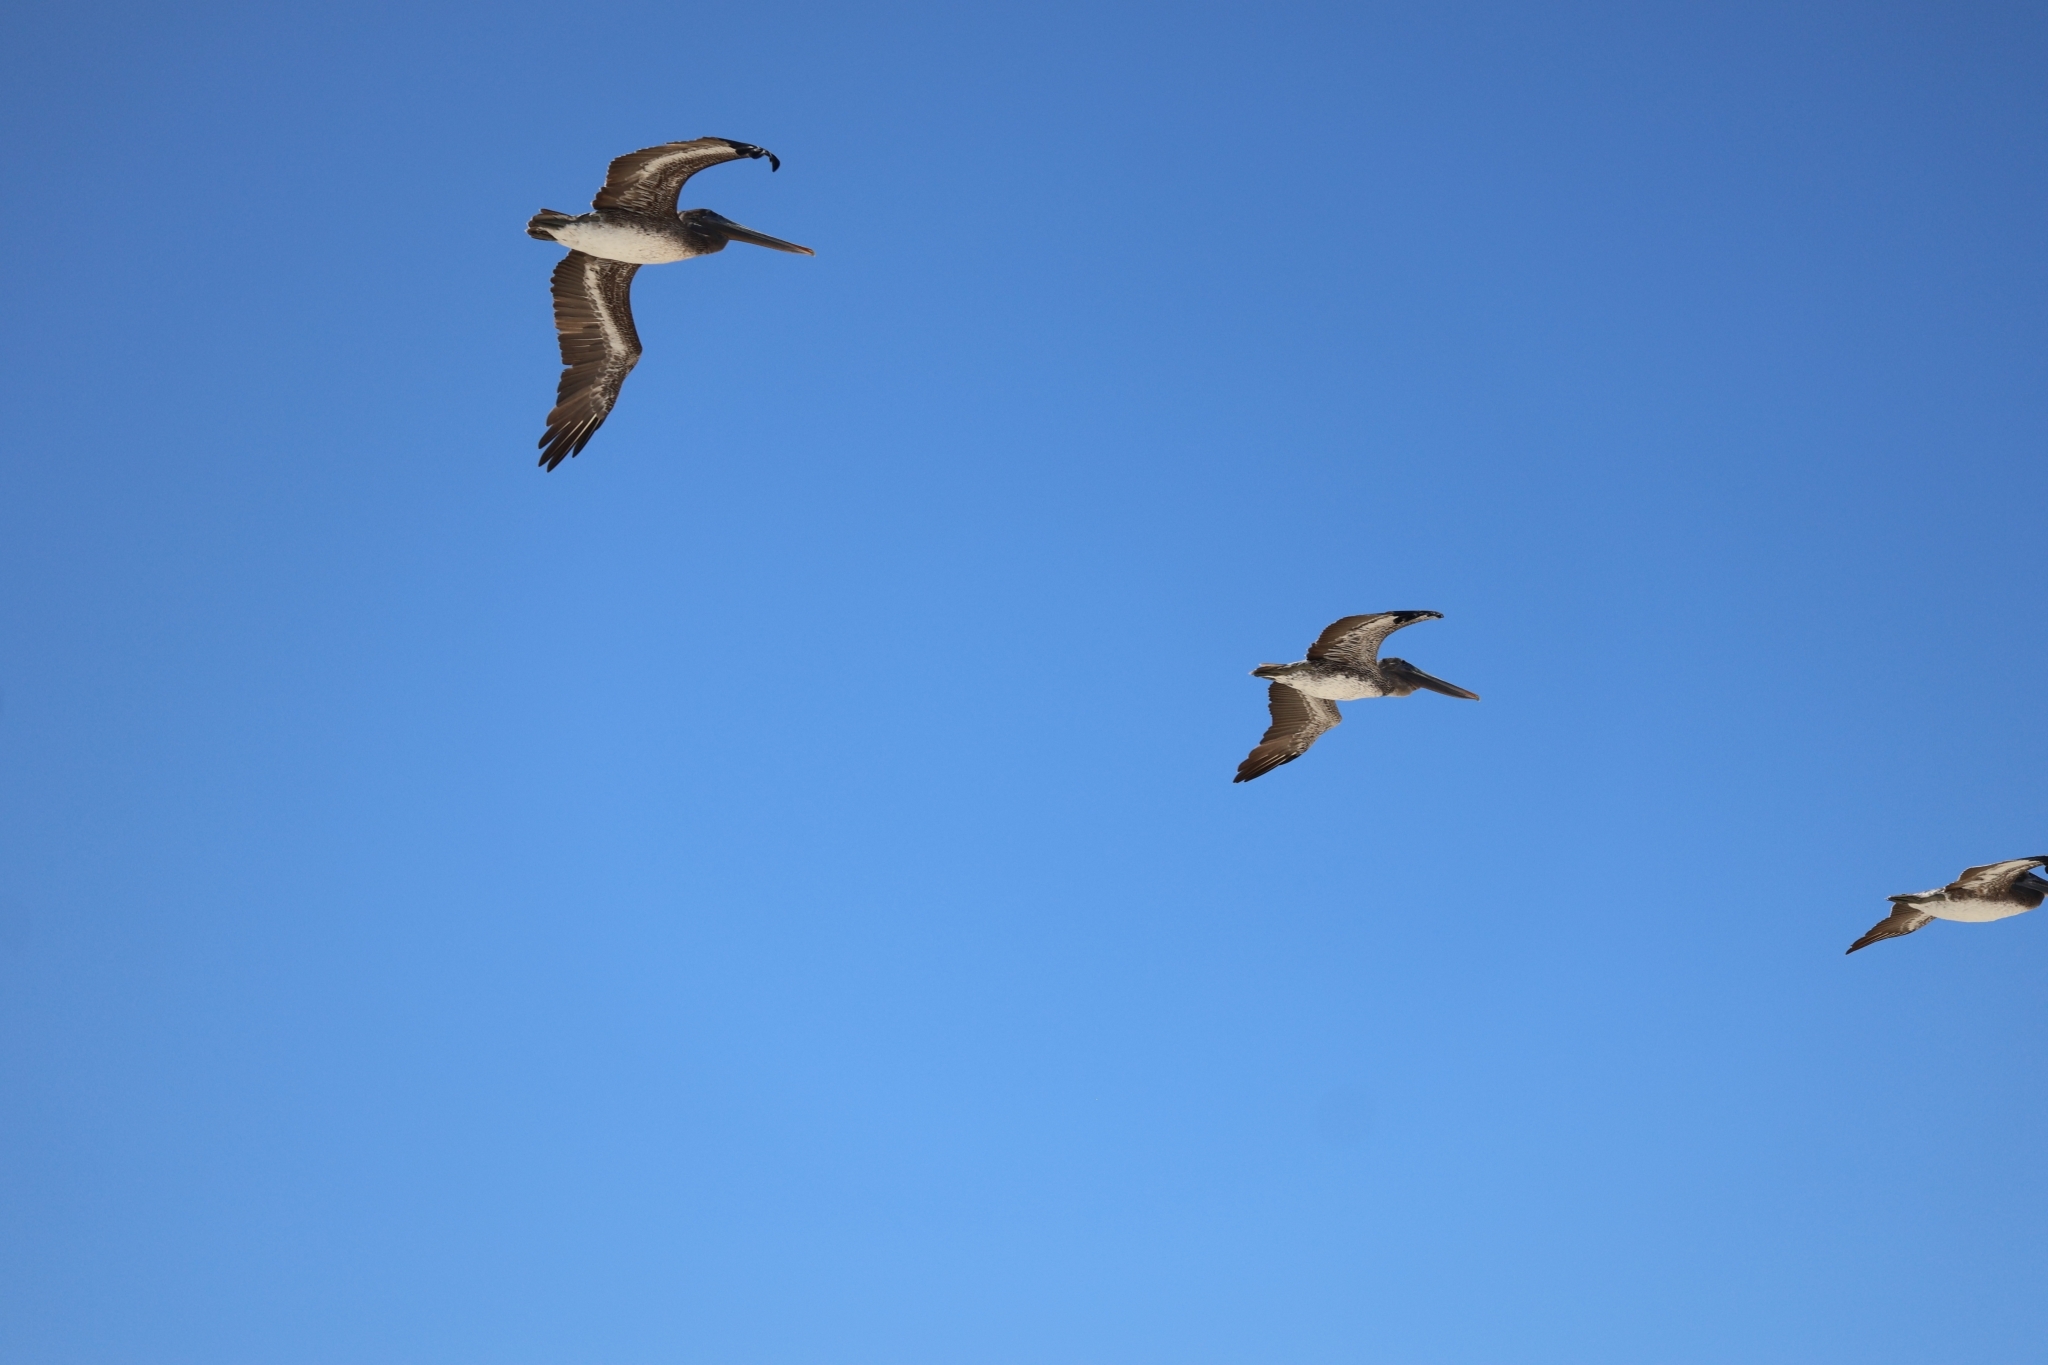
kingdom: Animalia
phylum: Chordata
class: Aves
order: Pelecaniformes
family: Pelecanidae
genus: Pelecanus
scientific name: Pelecanus occidentalis
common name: Brown pelican
